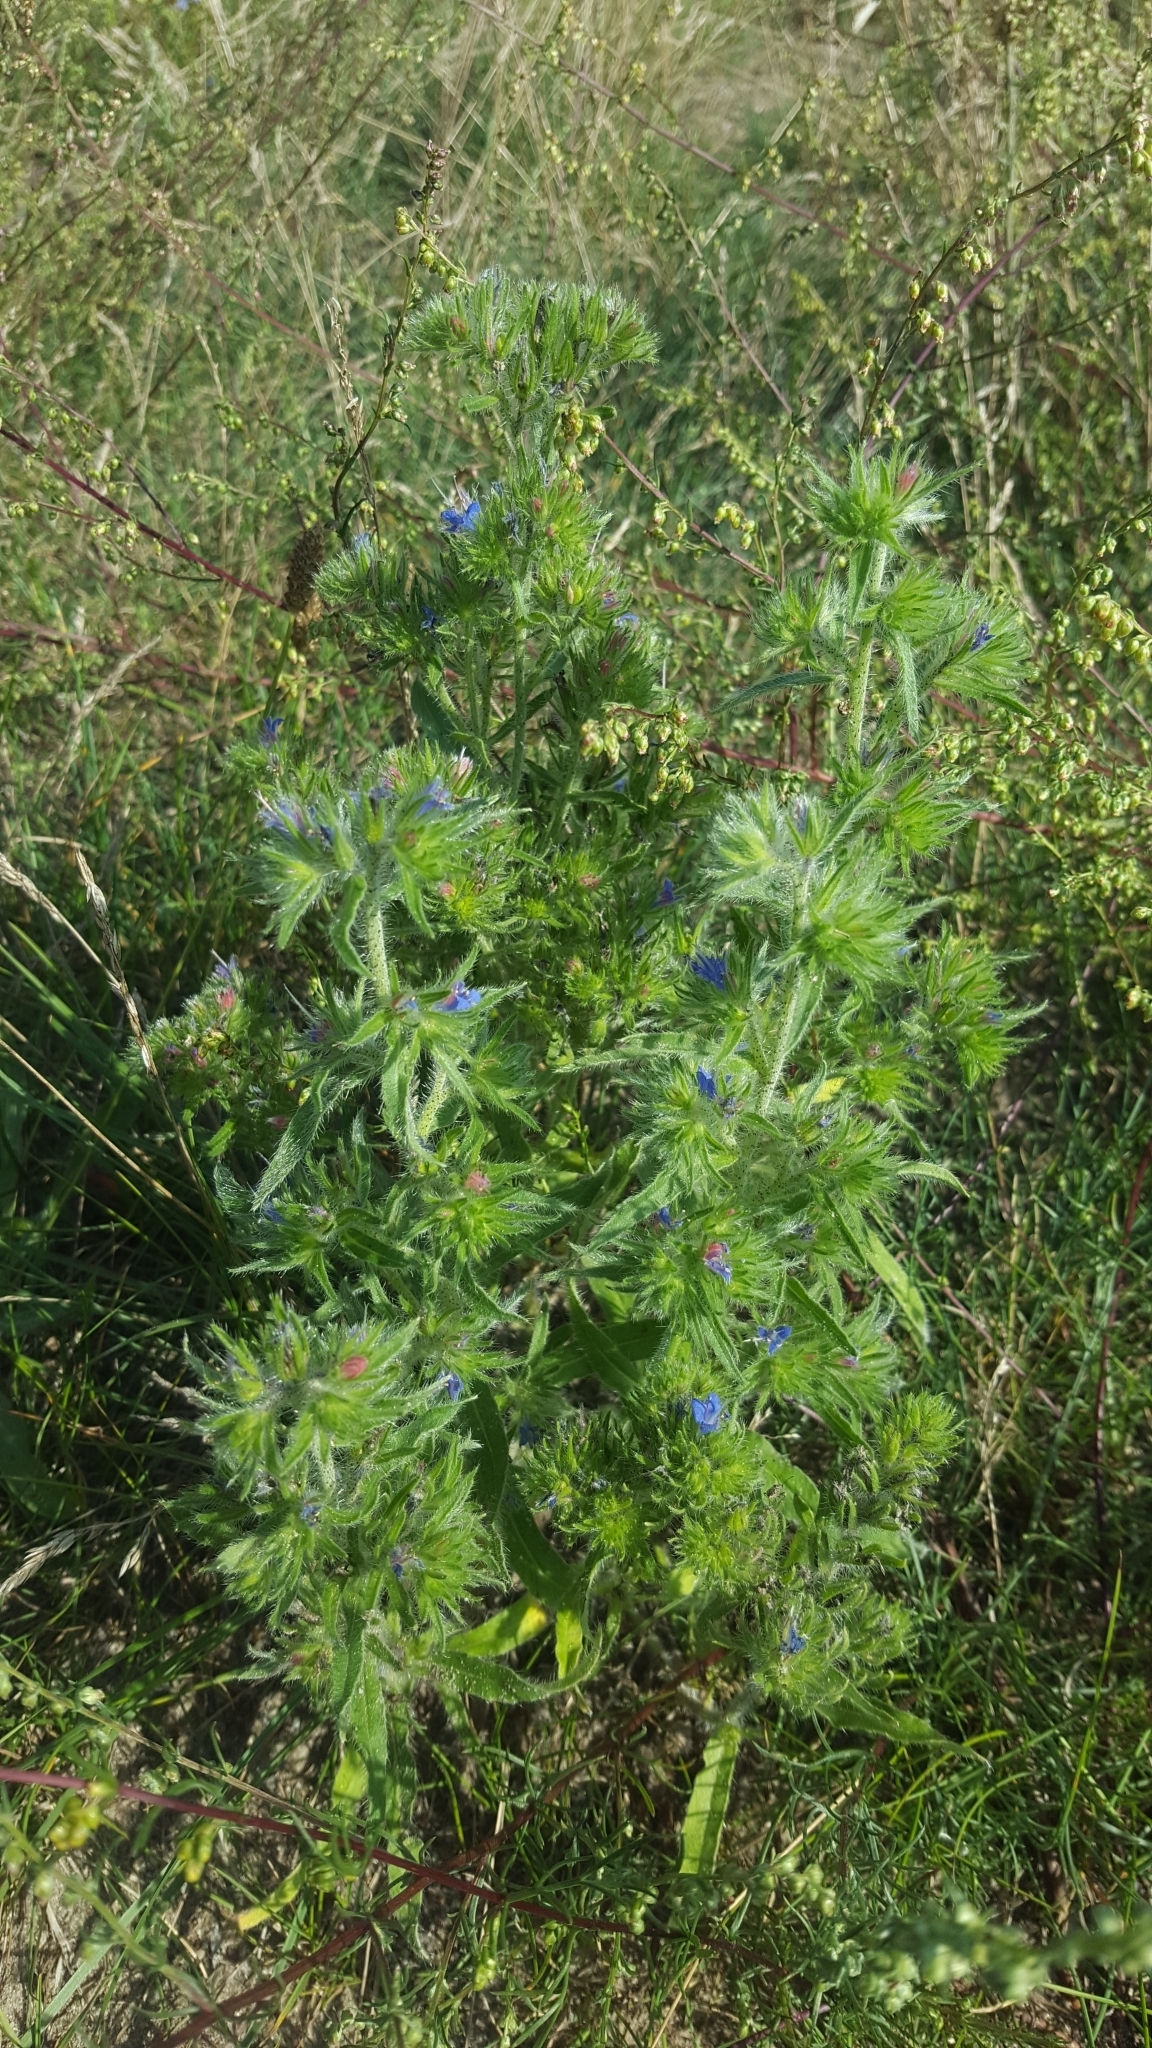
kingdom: Animalia
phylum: Arthropoda
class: Arachnida
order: Trombidiformes
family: Eriophyidae
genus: Aceria
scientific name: Aceria echii
